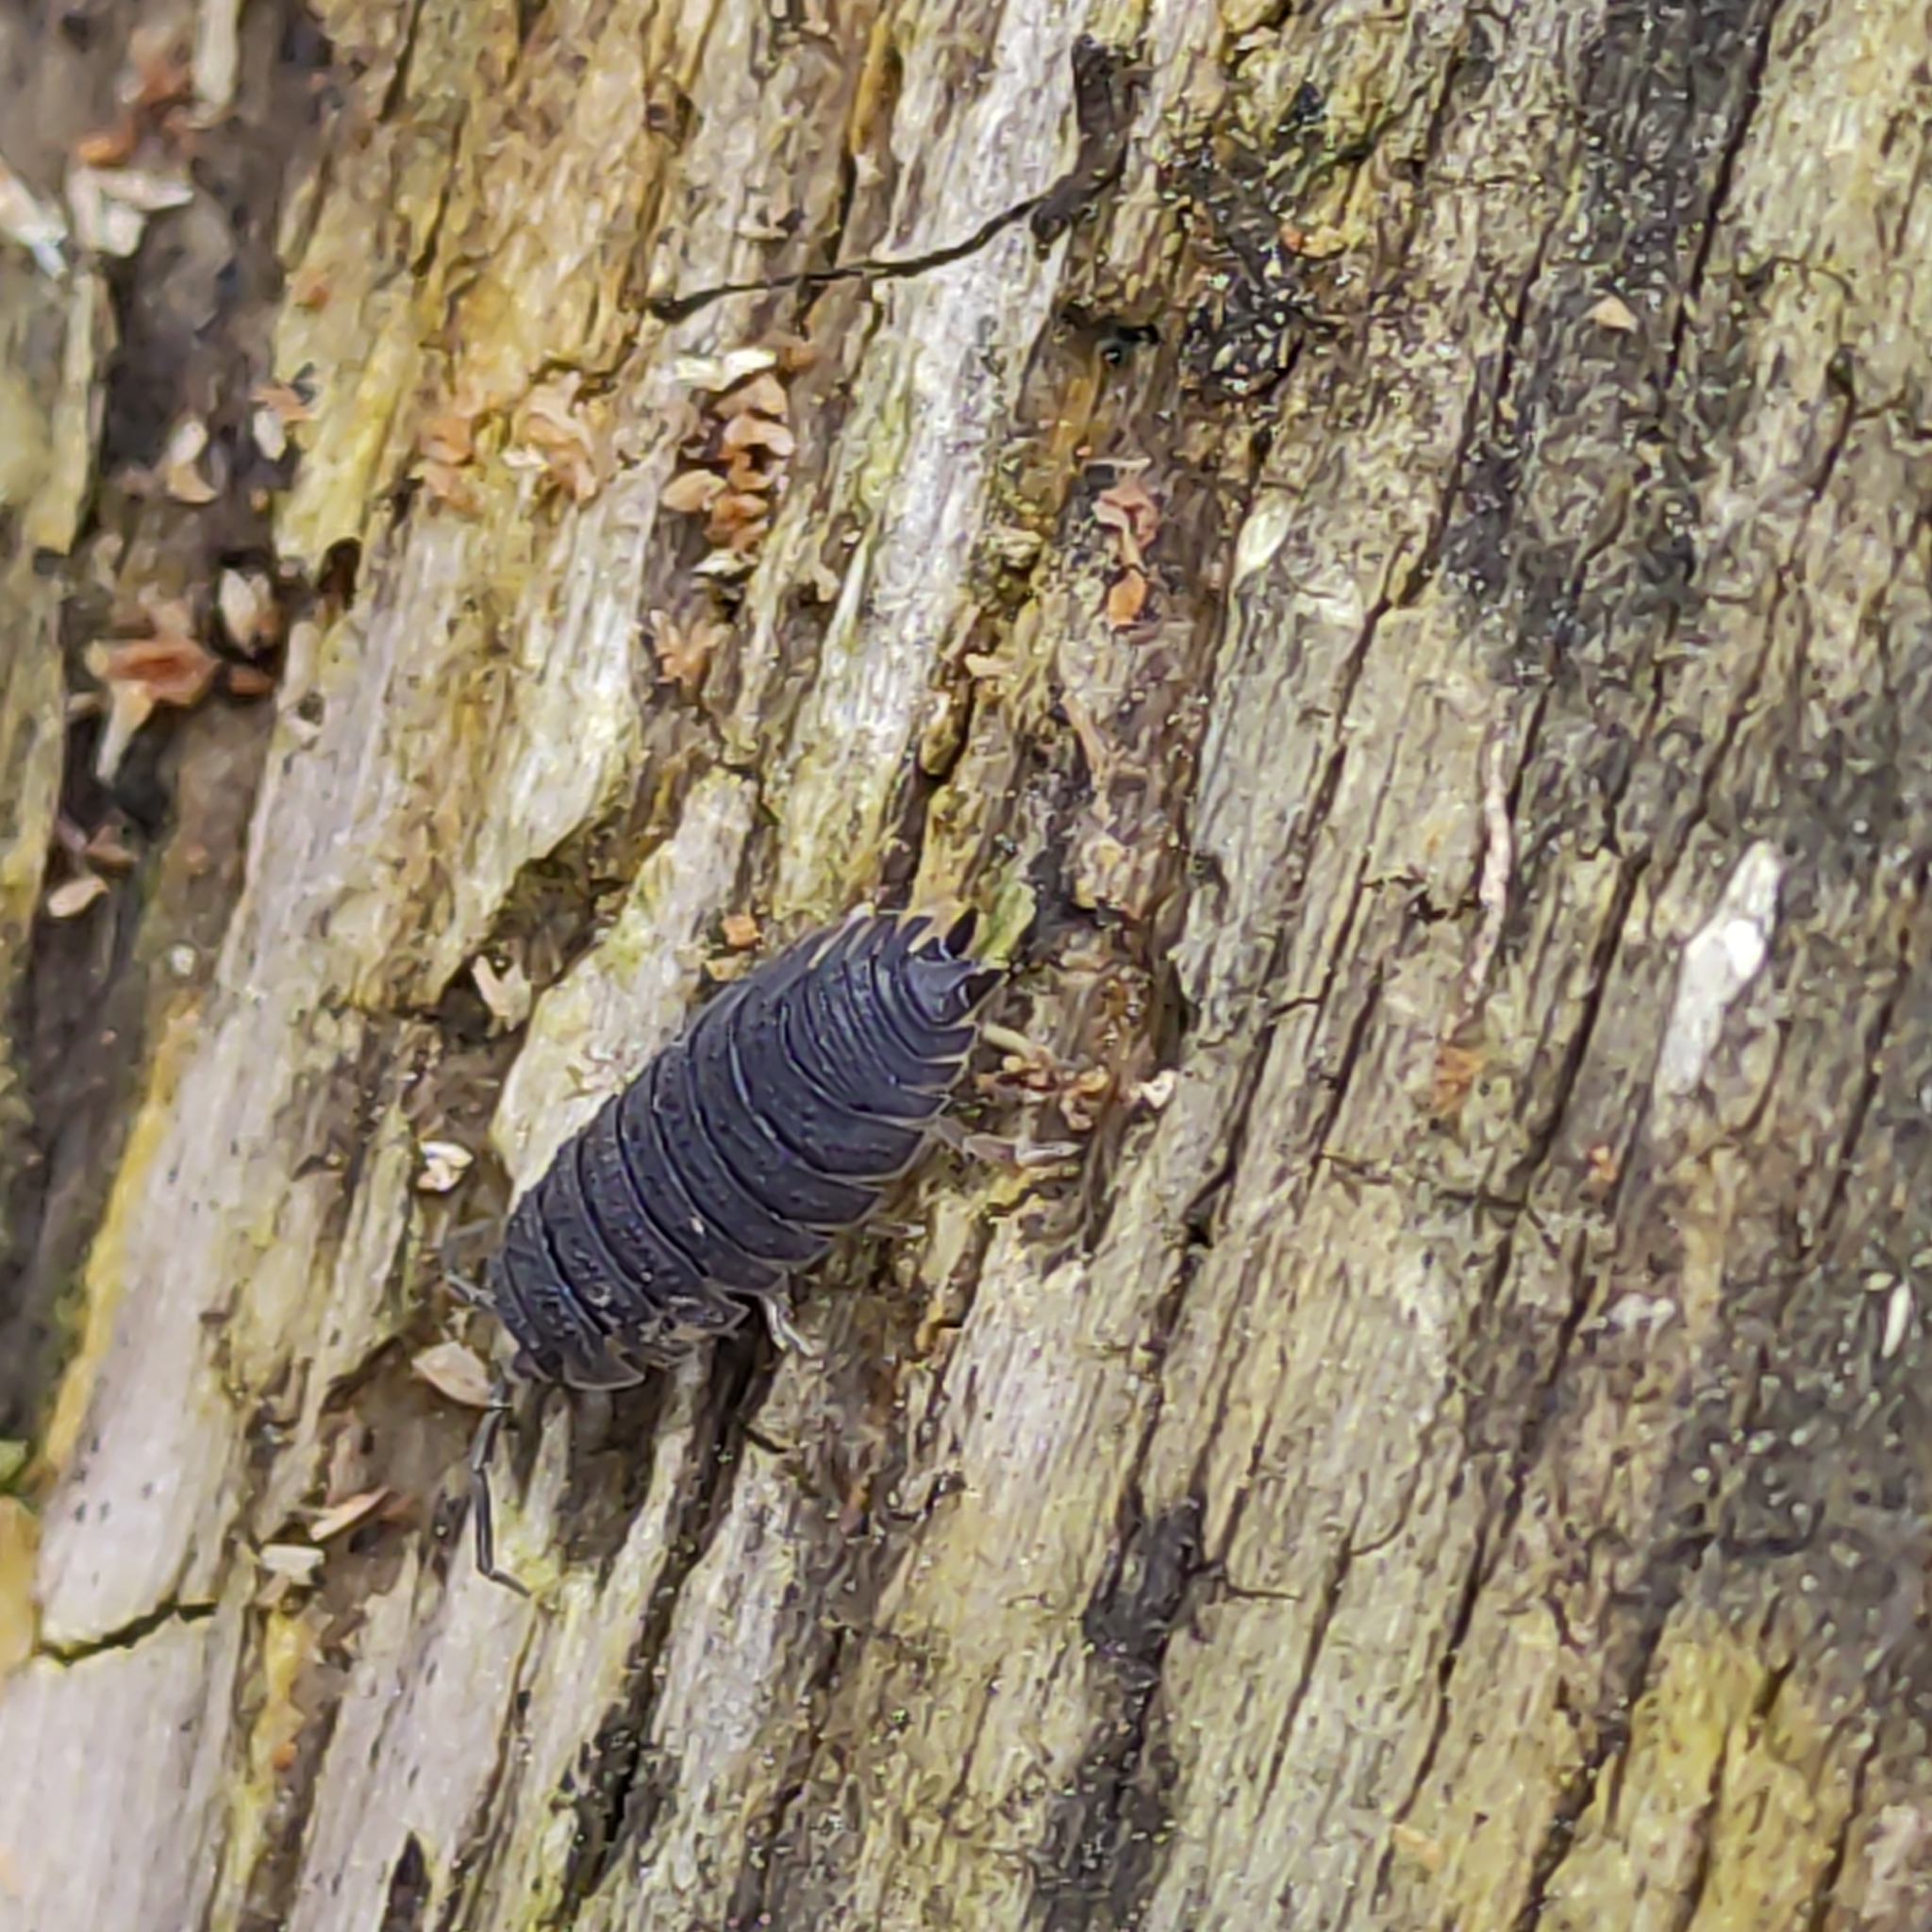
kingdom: Animalia
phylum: Arthropoda
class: Malacostraca
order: Isopoda
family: Porcellionidae
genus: Porcellio
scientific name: Porcellio scaber
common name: Common rough woodlouse
